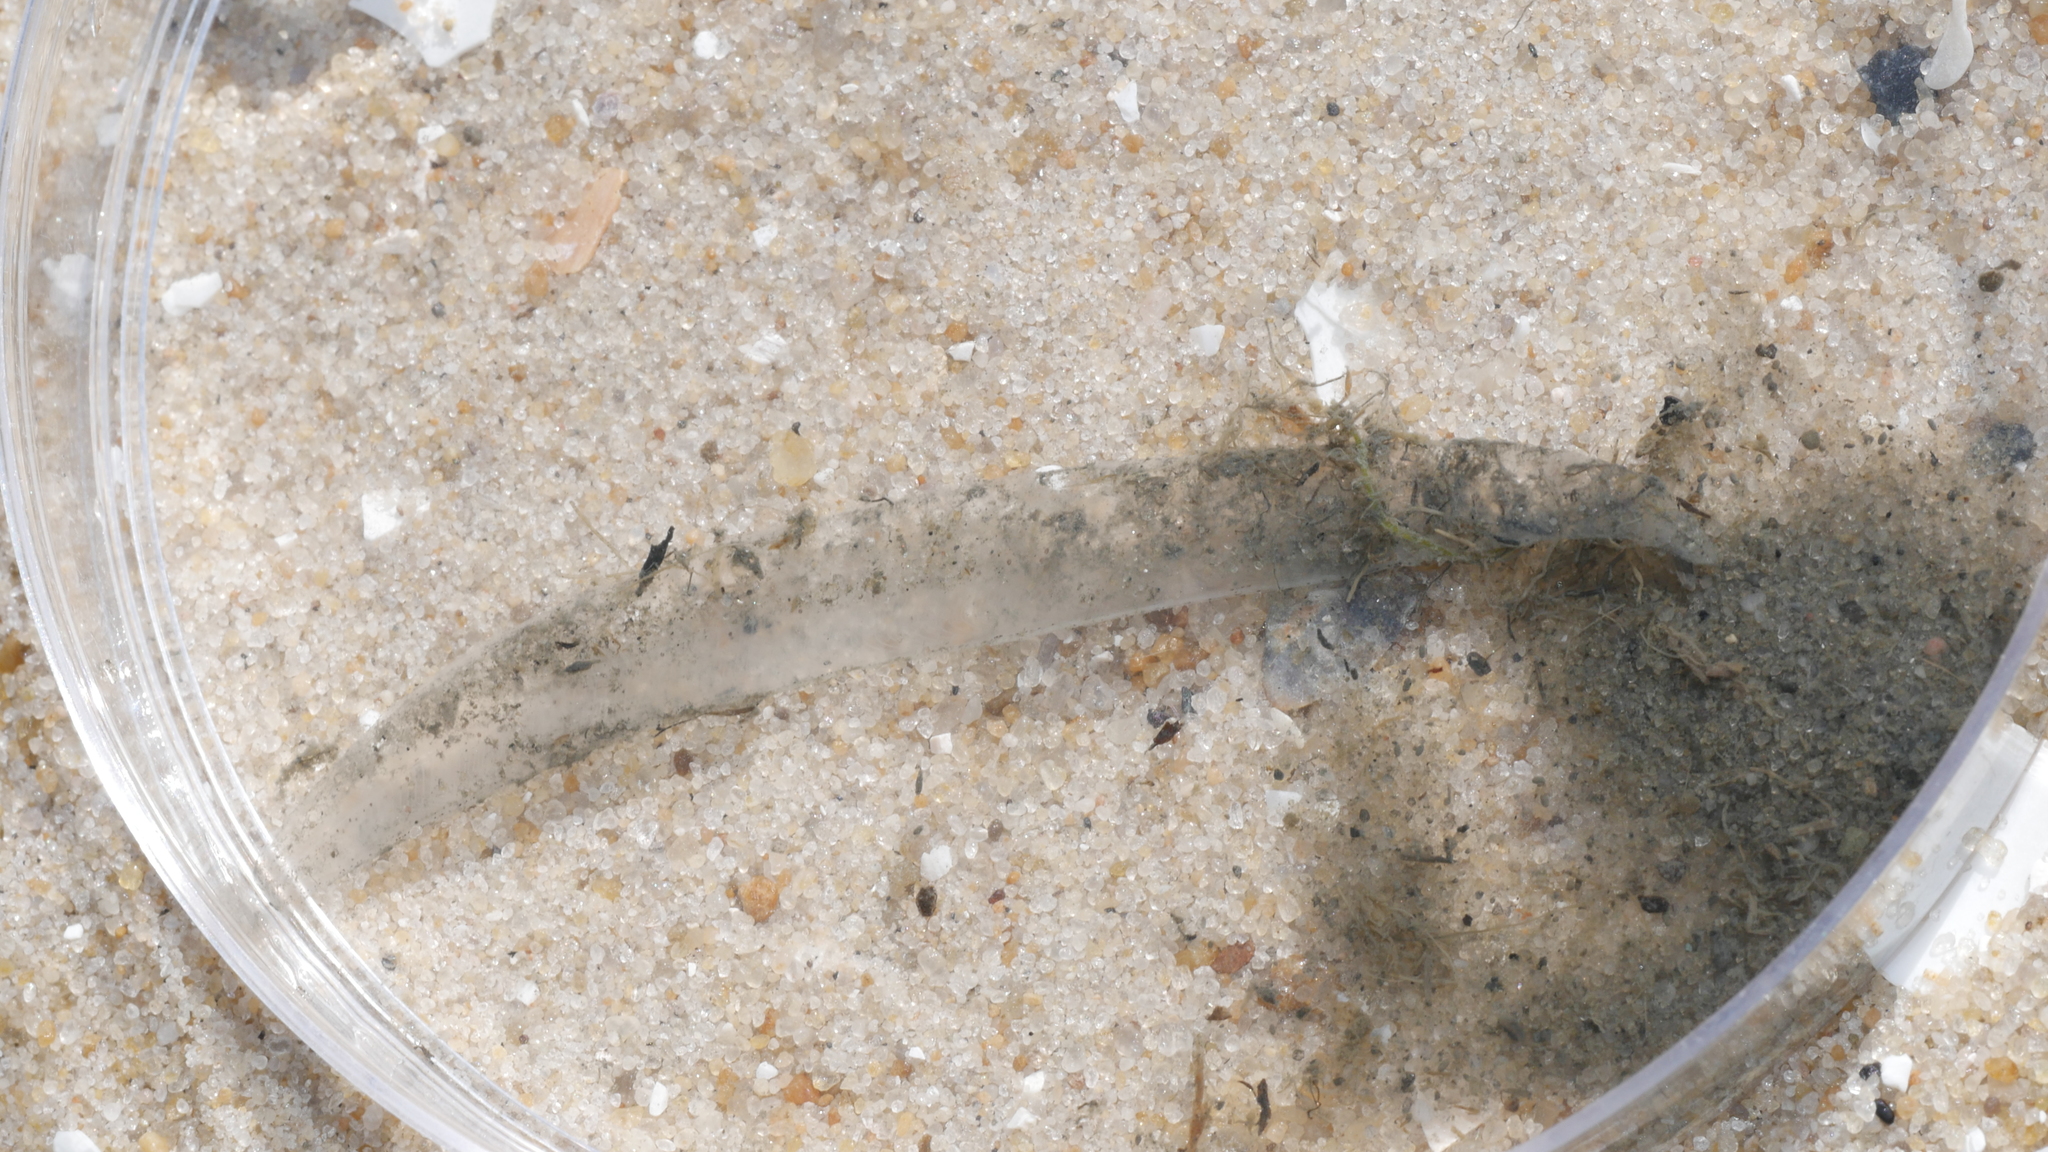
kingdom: Animalia
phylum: Chordata
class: Leptocardii
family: Branchiostomatidae
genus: Branchiostoma
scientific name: Branchiostoma virginiae
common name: Virginia lancelet
